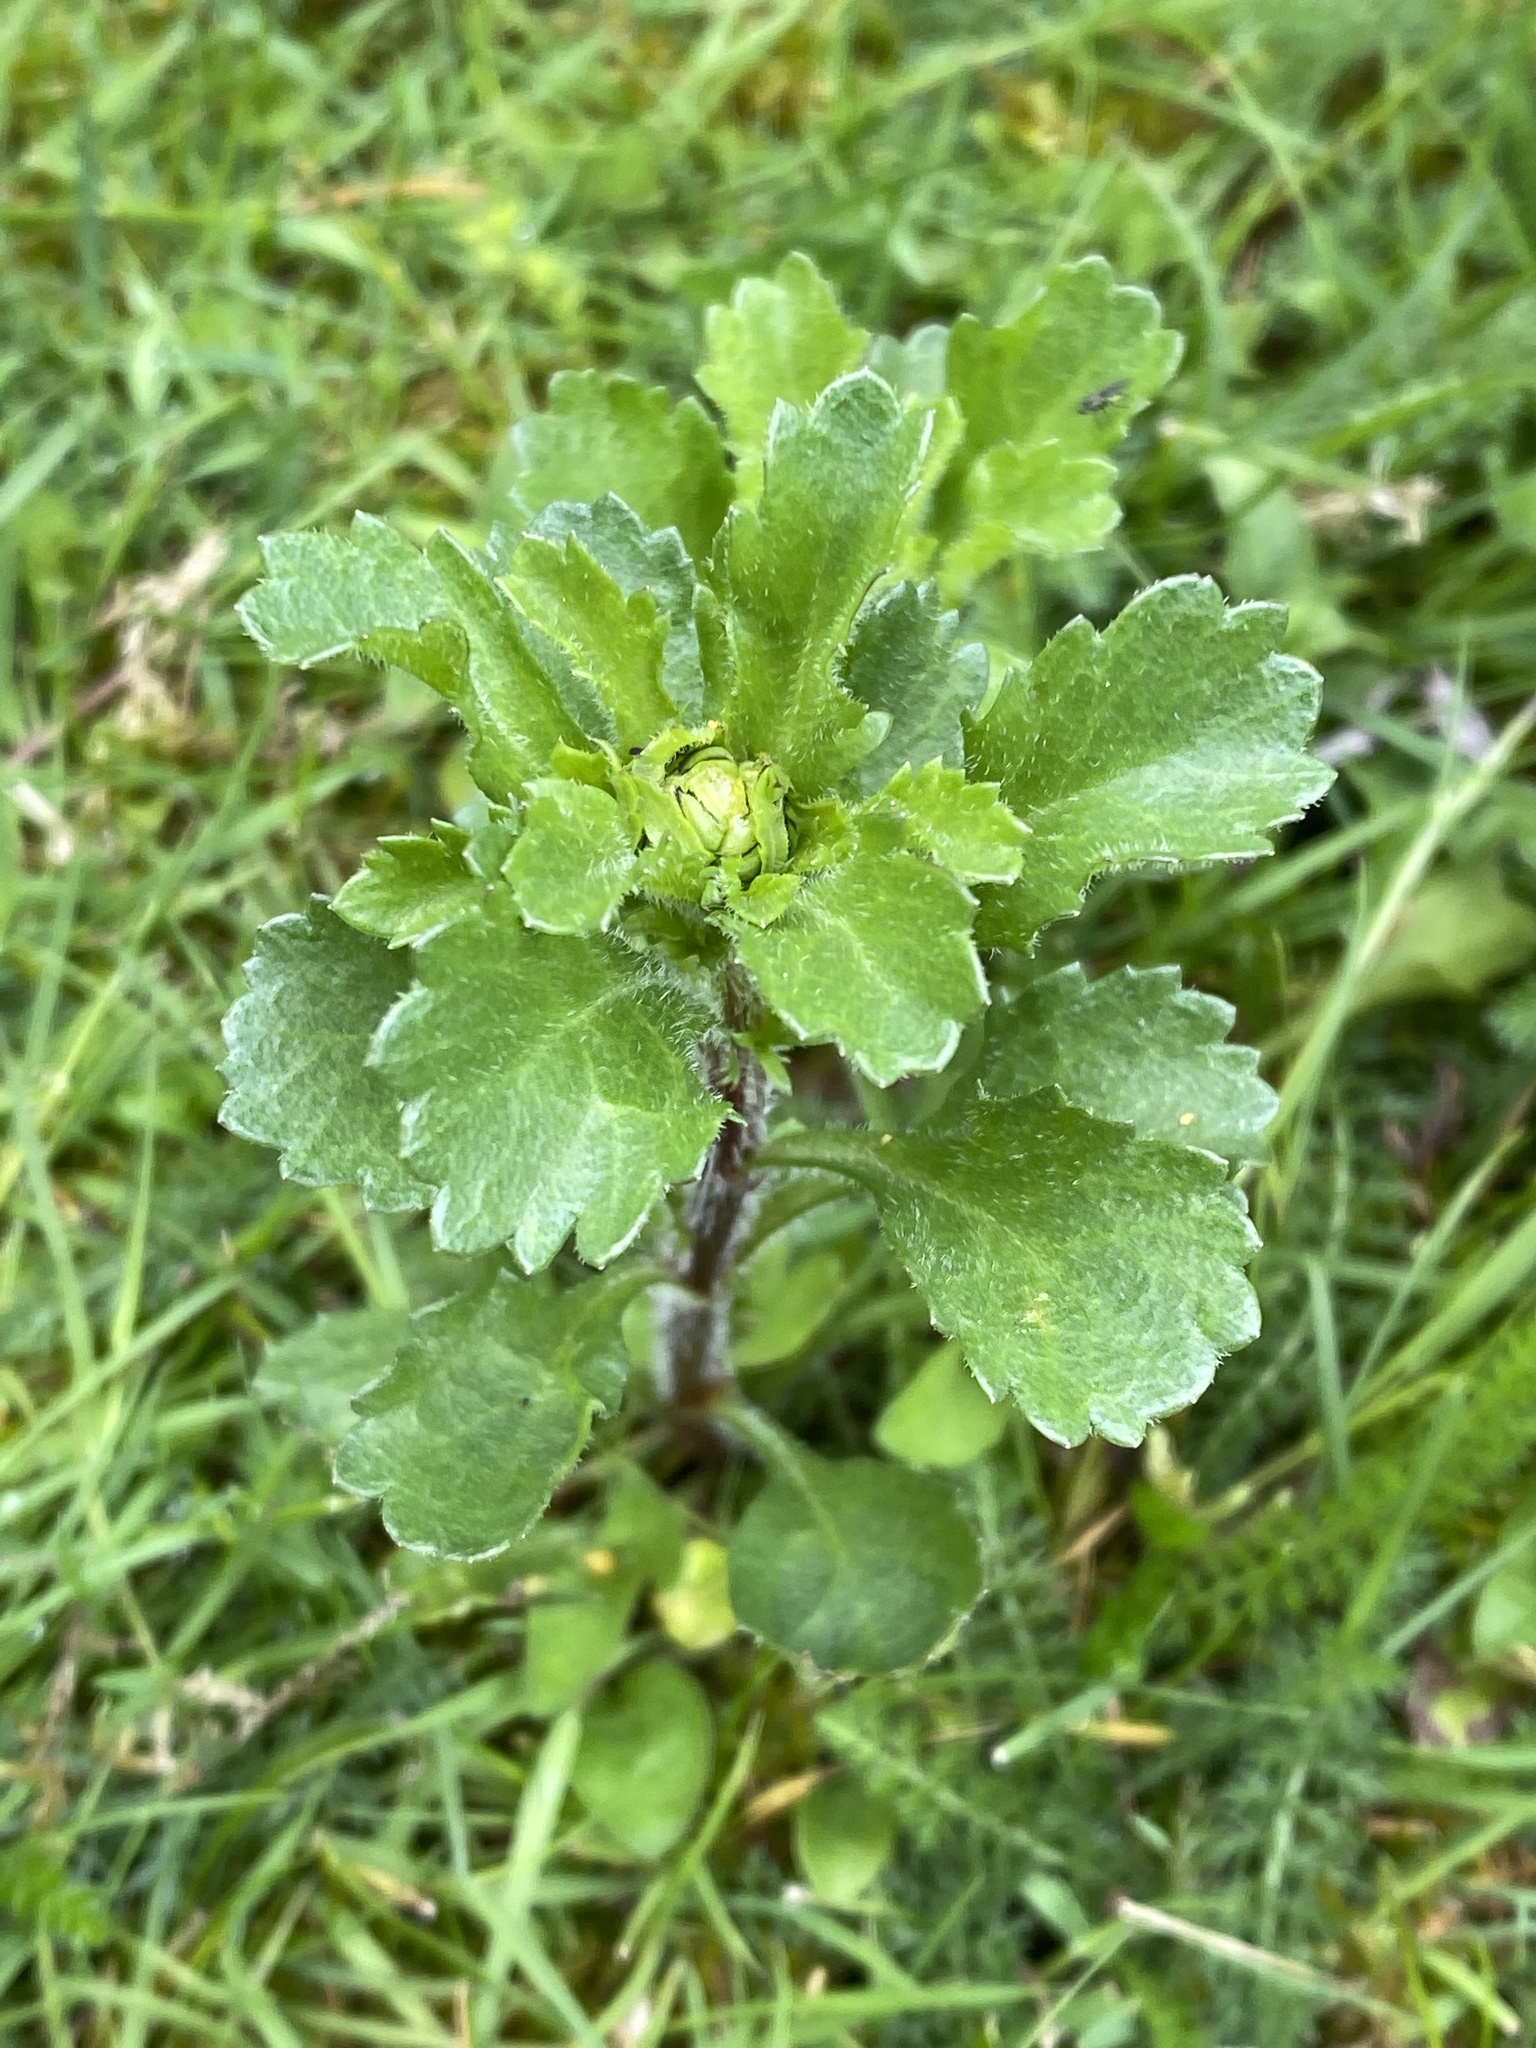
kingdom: Plantae
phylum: Tracheophyta
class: Magnoliopsida
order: Asterales
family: Asteraceae
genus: Leucanthemum
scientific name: Leucanthemum vulgare
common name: Oxeye daisy
